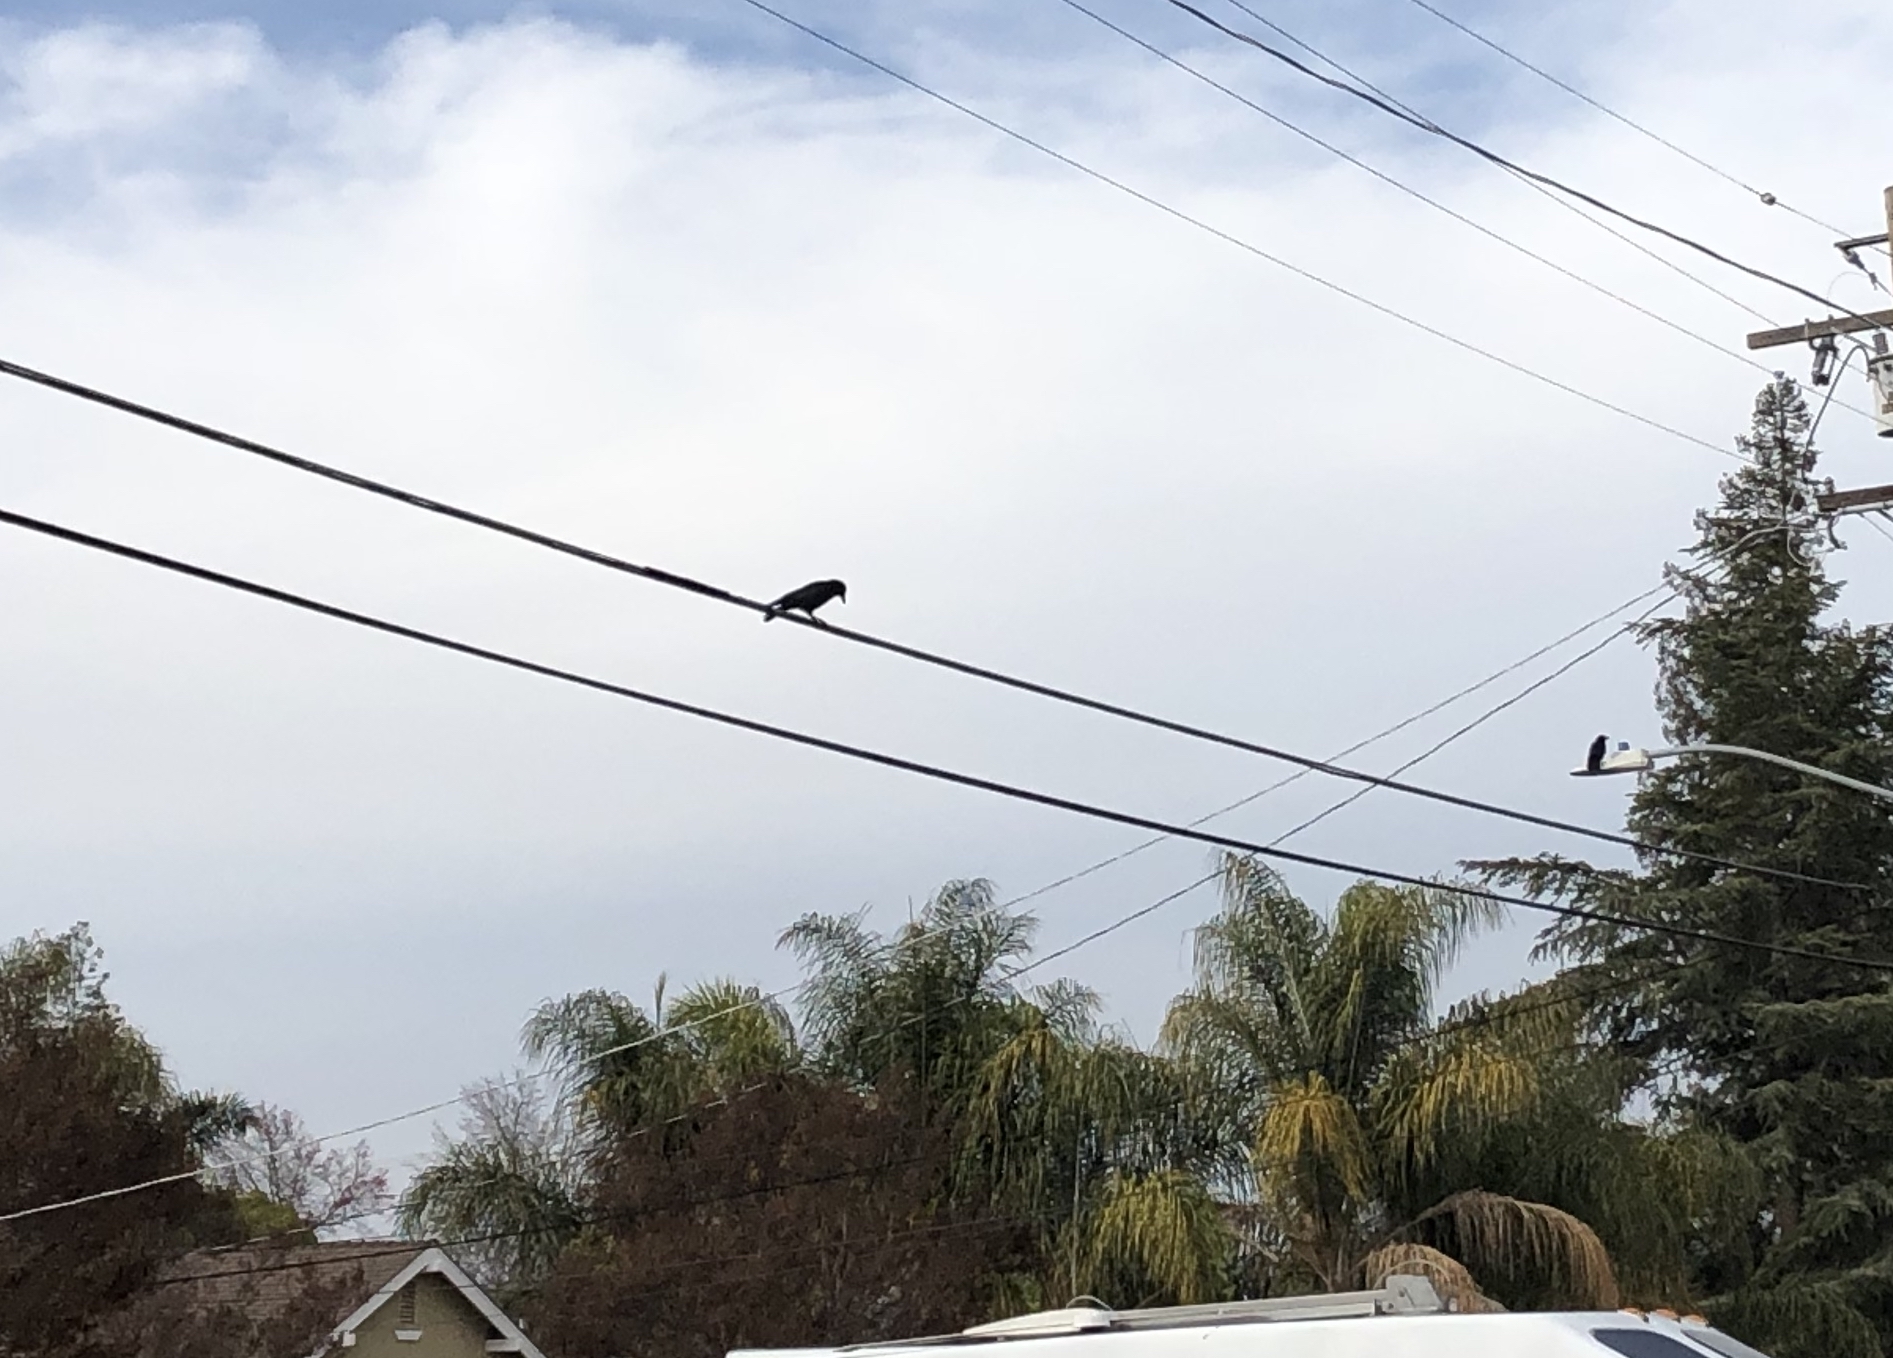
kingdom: Animalia
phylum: Chordata
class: Aves
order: Passeriformes
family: Corvidae
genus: Corvus
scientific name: Corvus brachyrhynchos
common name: American crow
